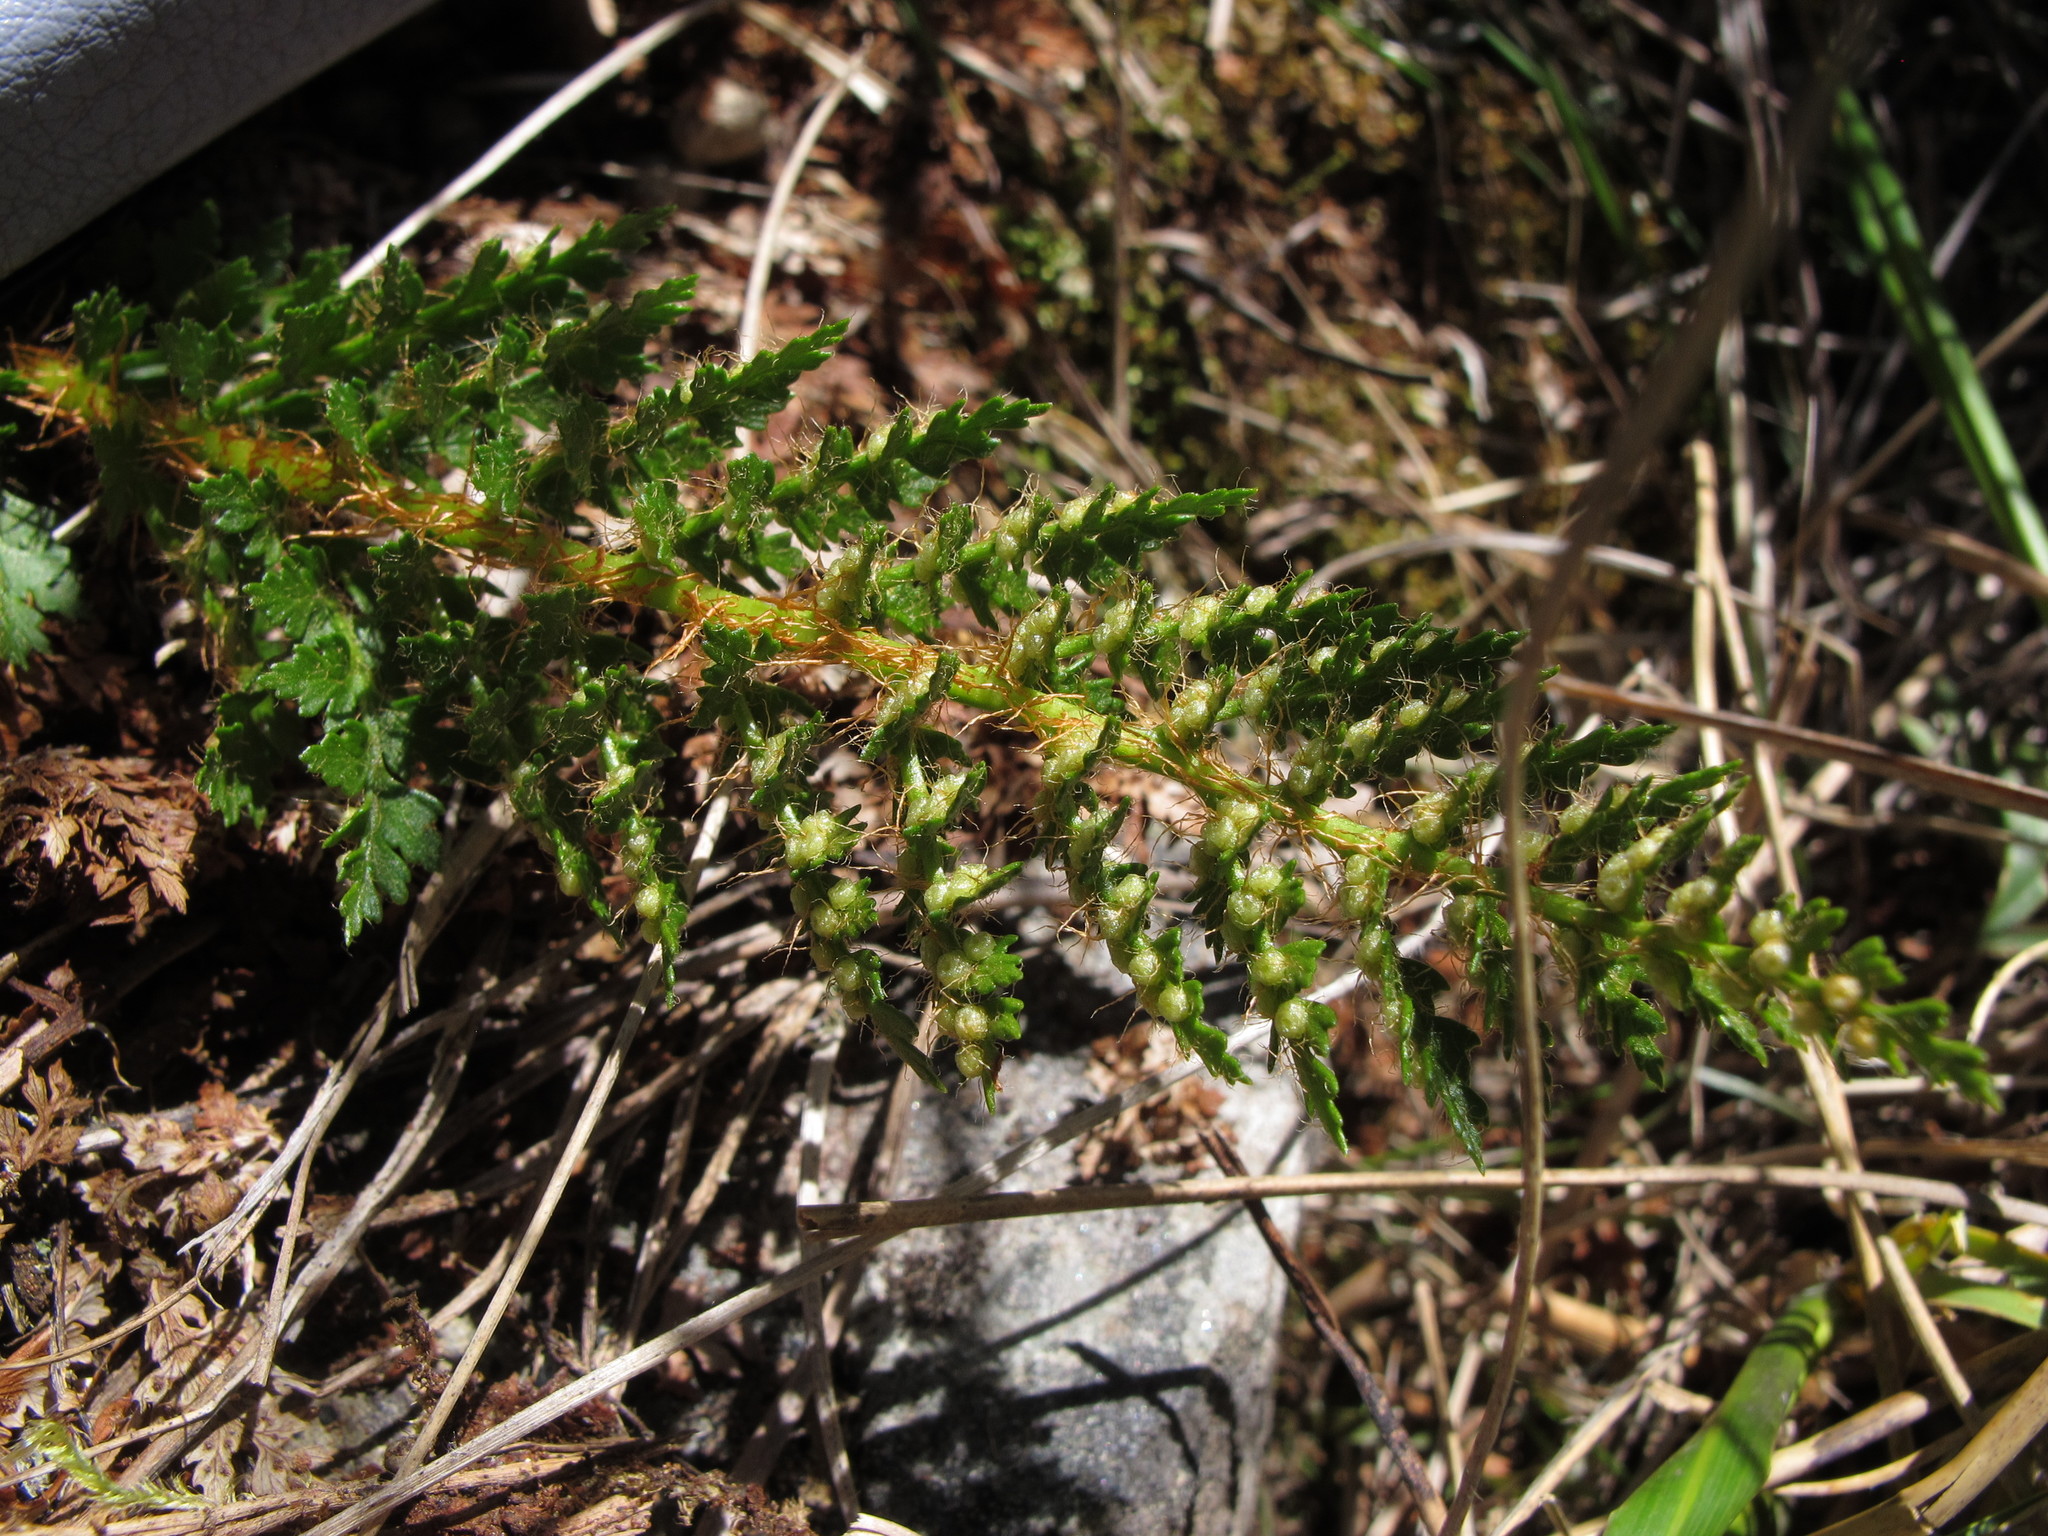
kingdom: Plantae
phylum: Tracheophyta
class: Polypodiopsida
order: Polypodiales
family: Dryopteridaceae
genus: Polystichum
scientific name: Polystichum cystostegia
